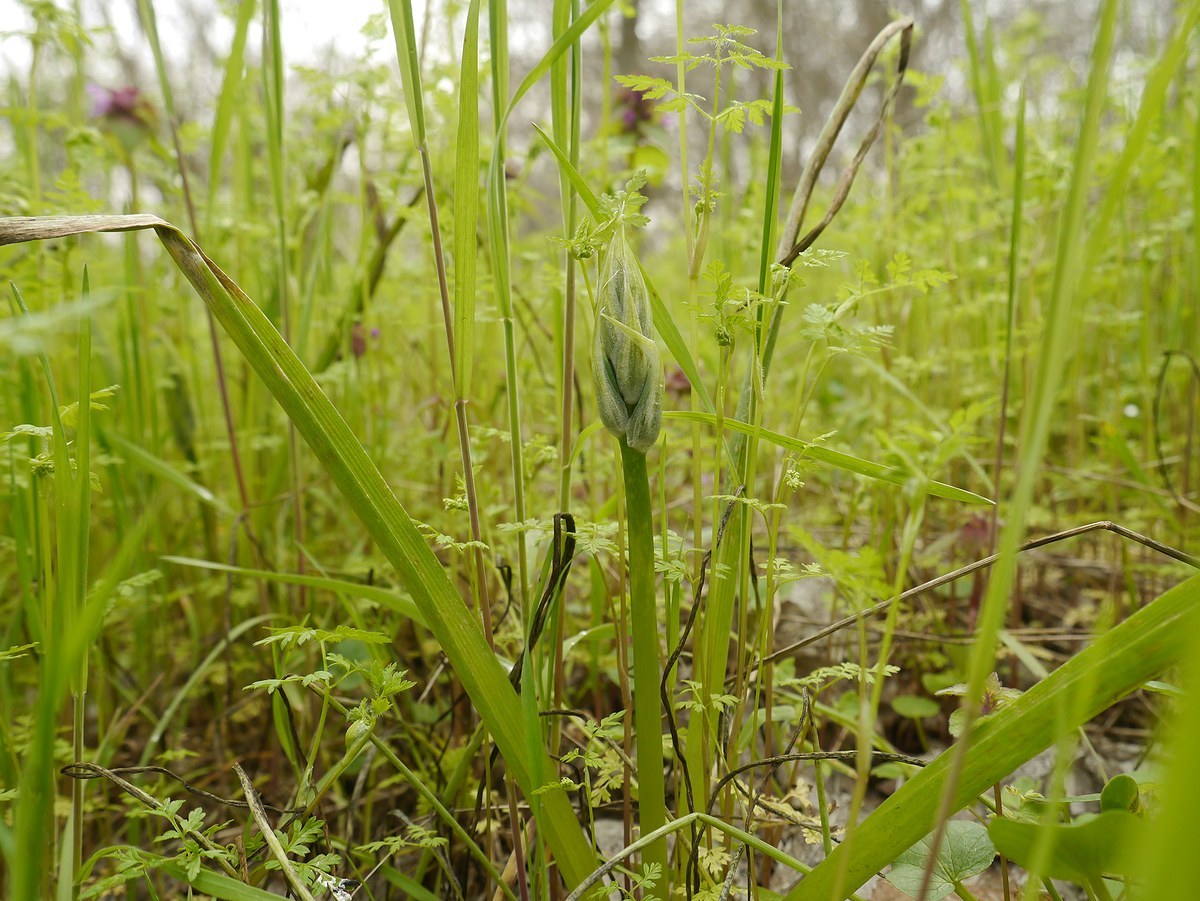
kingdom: Plantae
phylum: Tracheophyta
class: Liliopsida
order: Asparagales
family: Asparagaceae
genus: Ornithogalum
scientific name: Ornithogalum boucheanum
